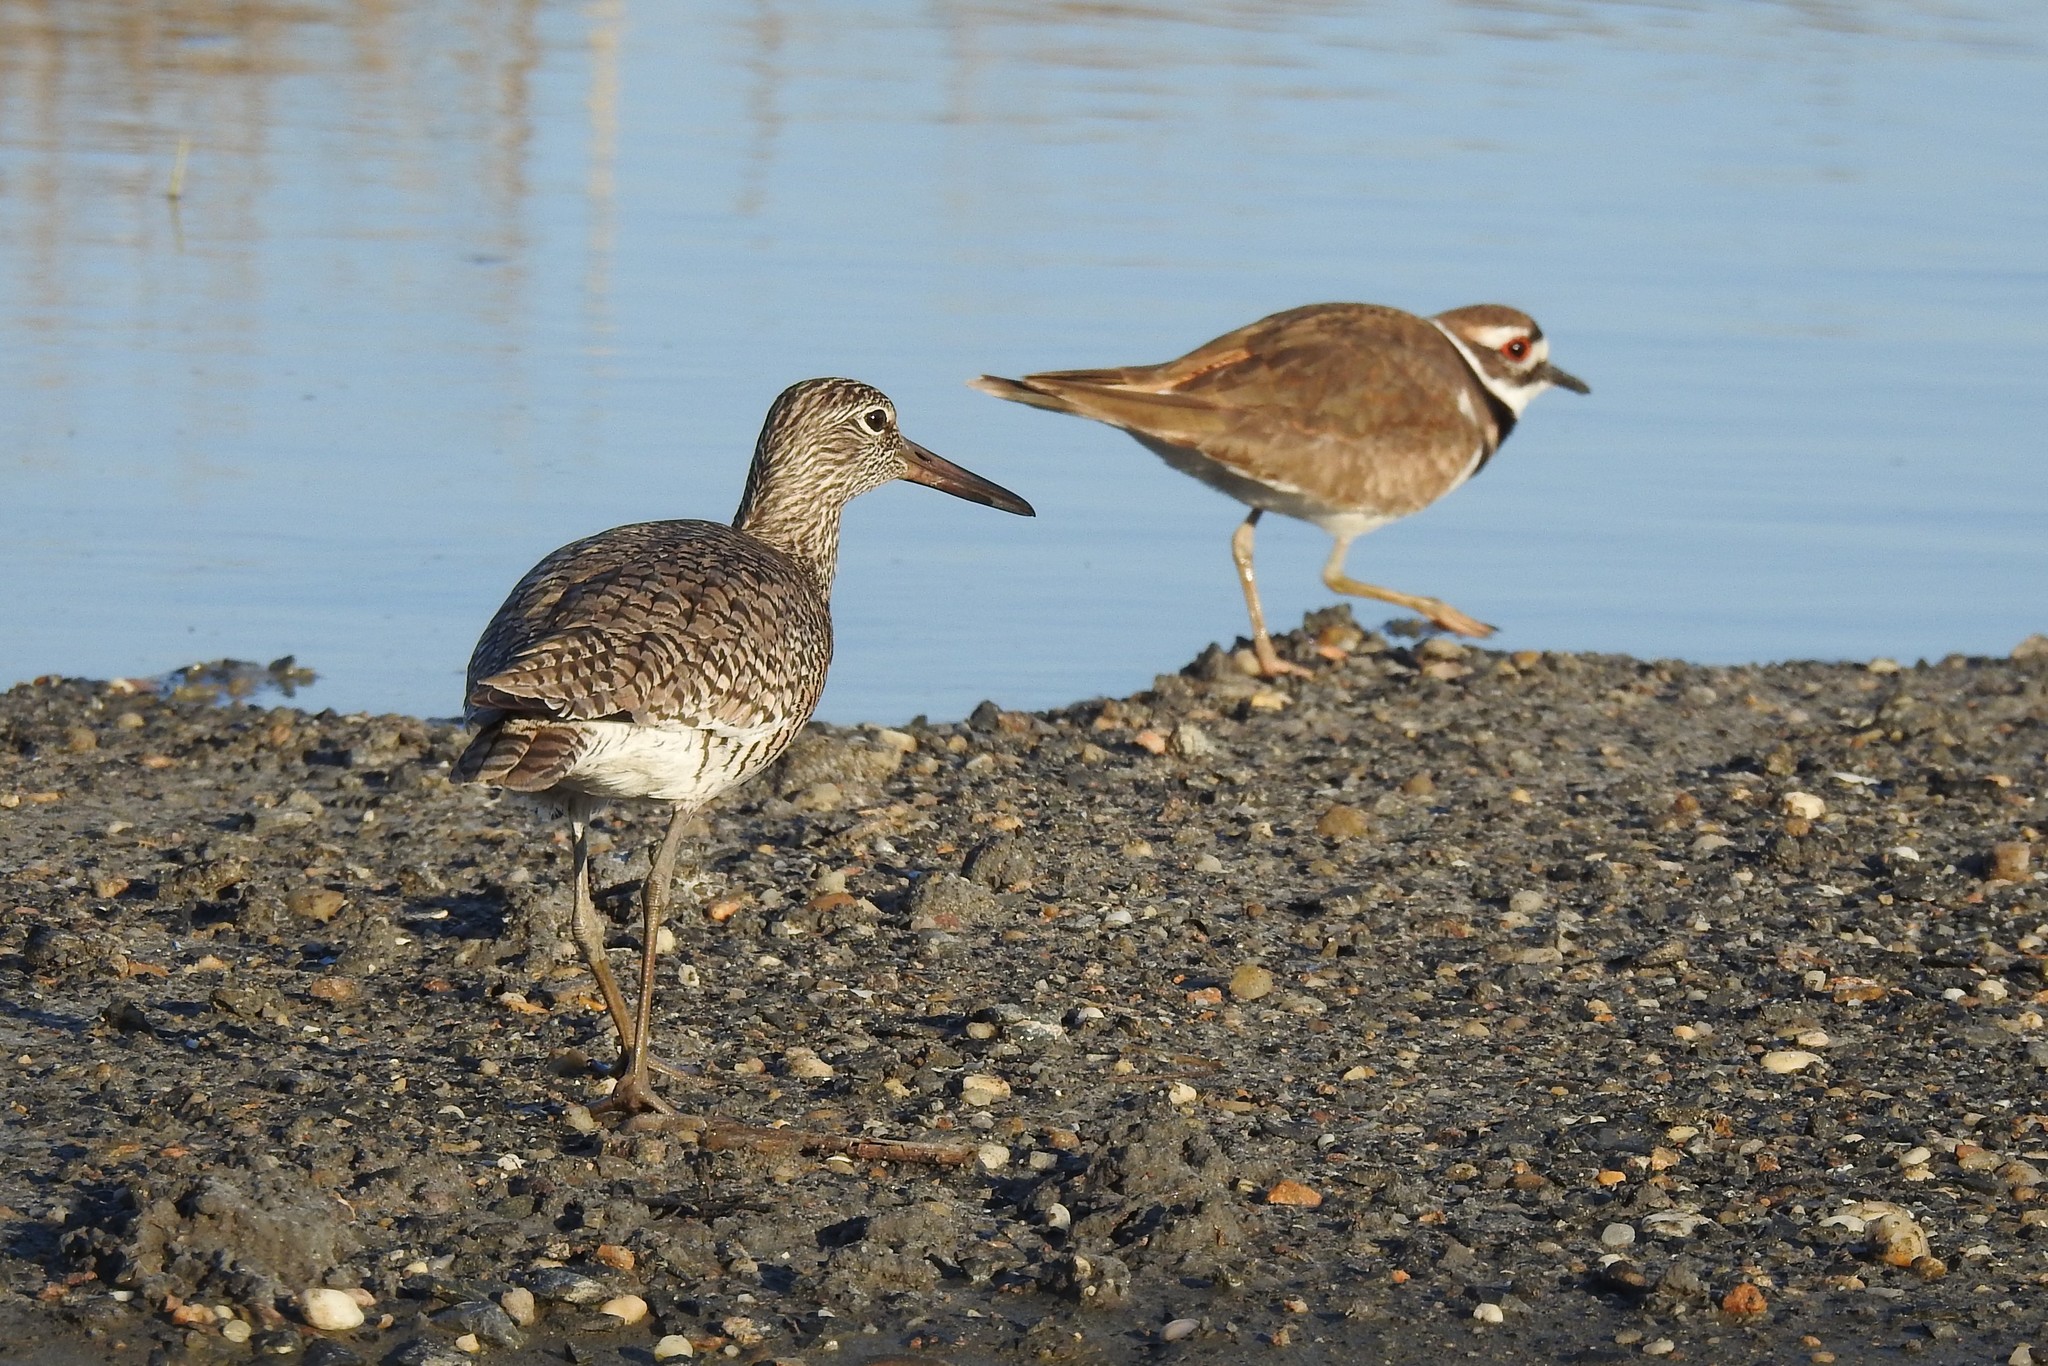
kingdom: Animalia
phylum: Chordata
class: Aves
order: Charadriiformes
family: Scolopacidae
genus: Tringa
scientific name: Tringa semipalmata
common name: Willet
